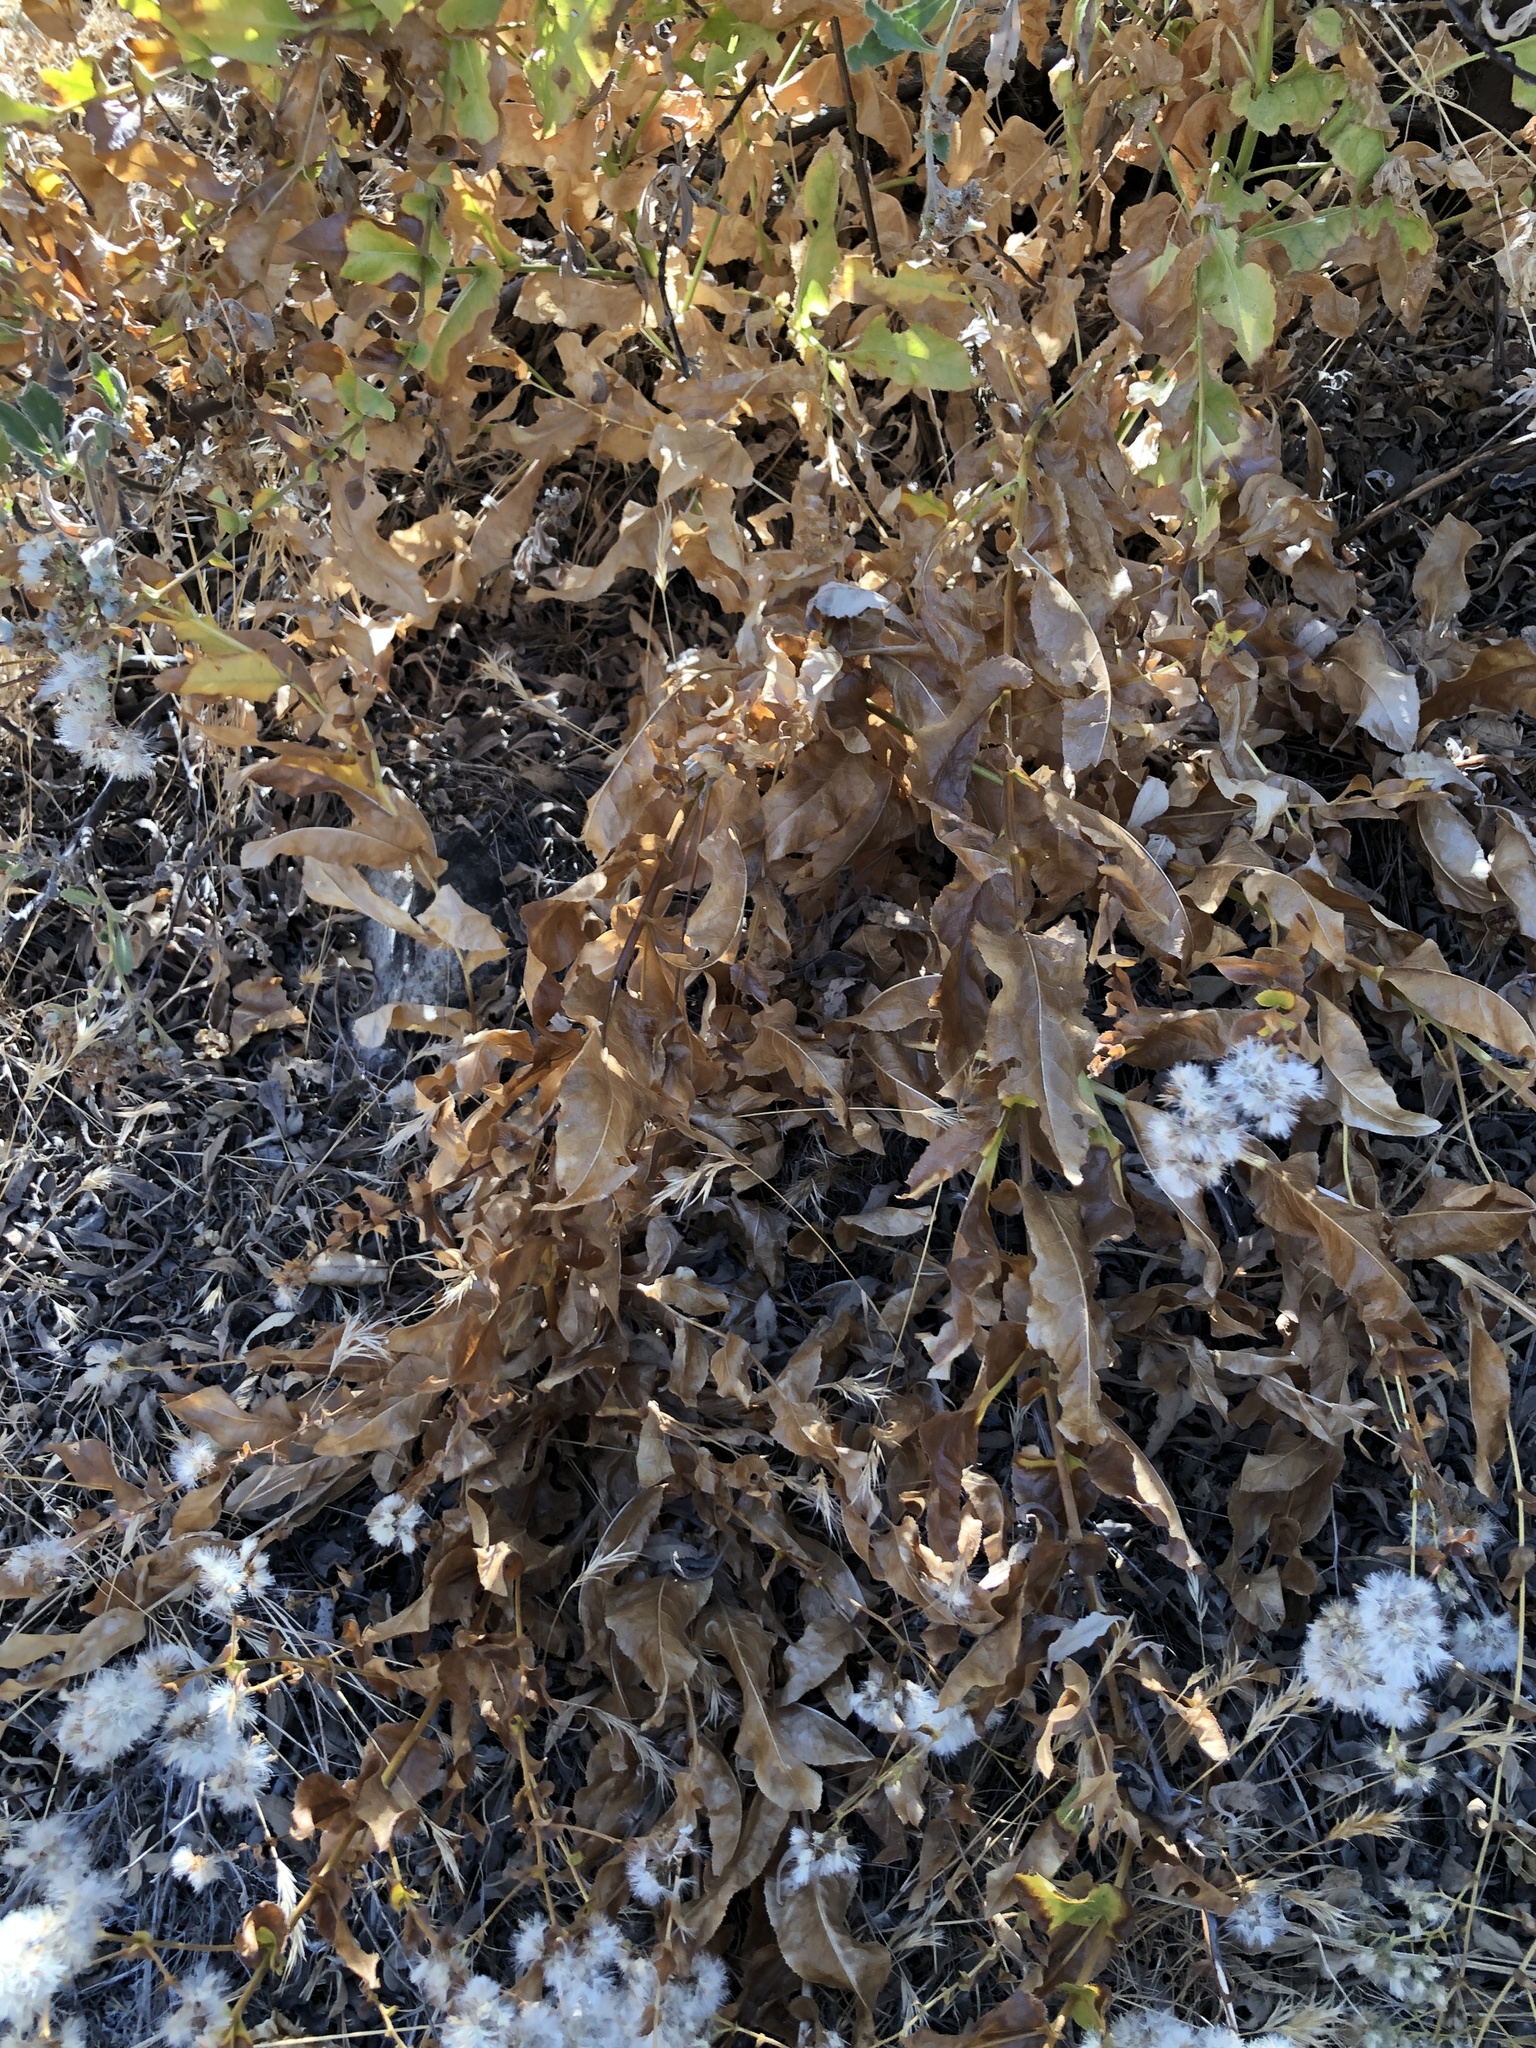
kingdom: Plantae
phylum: Tracheophyta
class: Magnoliopsida
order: Asterales
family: Asteraceae
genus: Acourtia
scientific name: Acourtia microcephala
